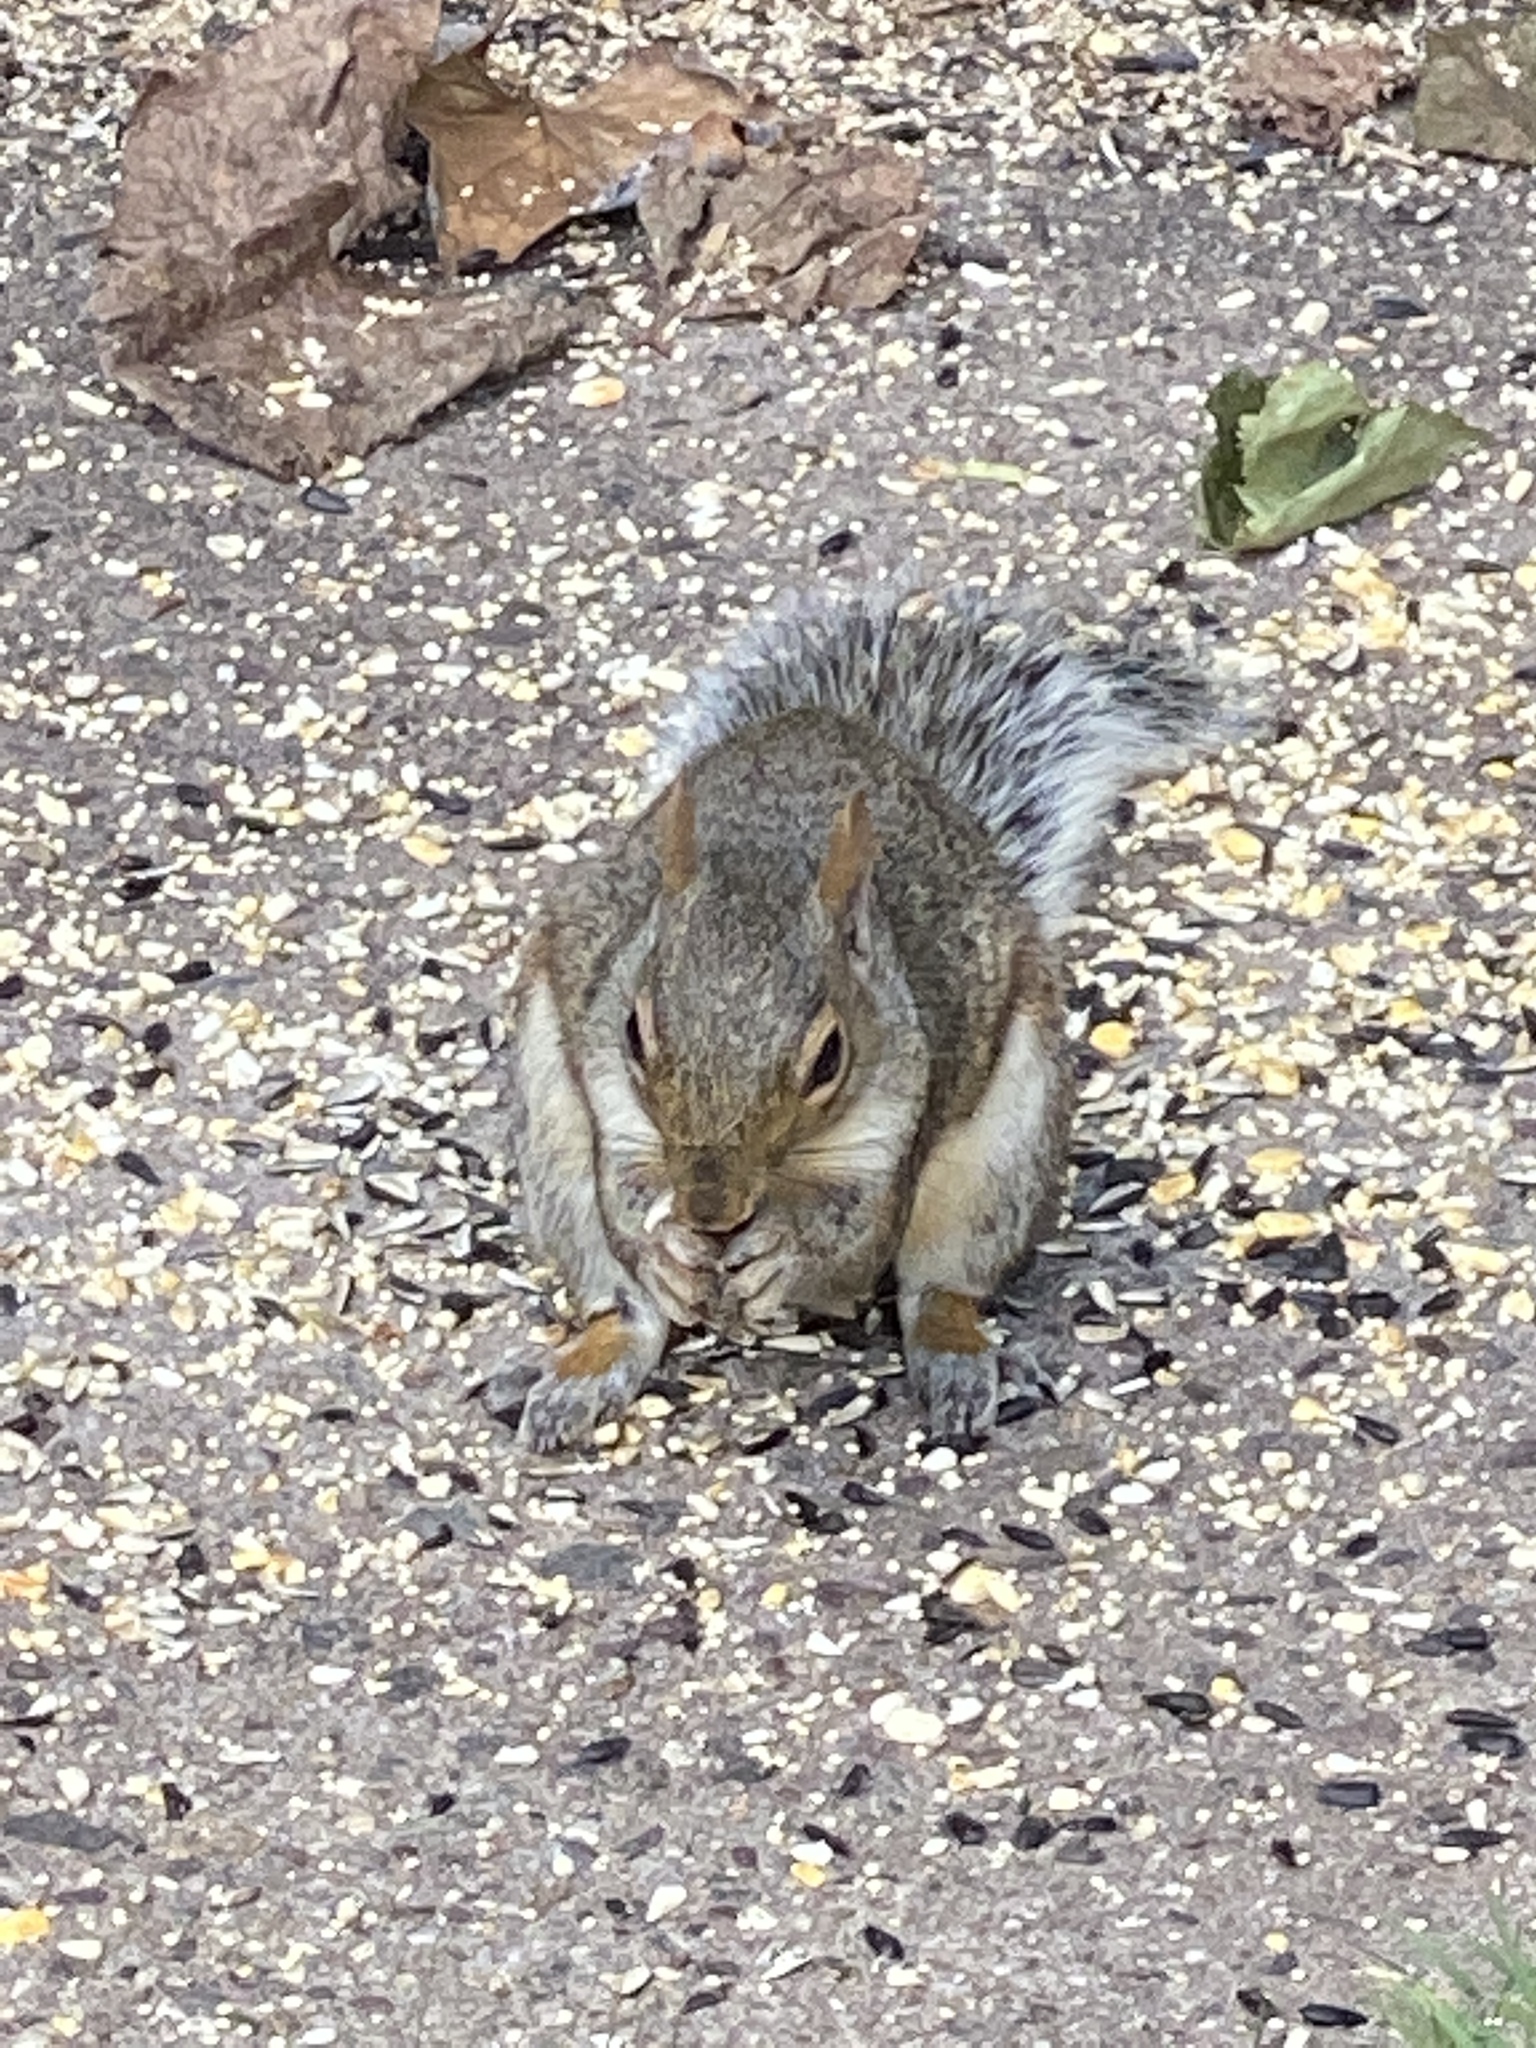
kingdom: Animalia
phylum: Chordata
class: Mammalia
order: Rodentia
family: Sciuridae
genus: Sciurus
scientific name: Sciurus carolinensis
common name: Eastern gray squirrel
